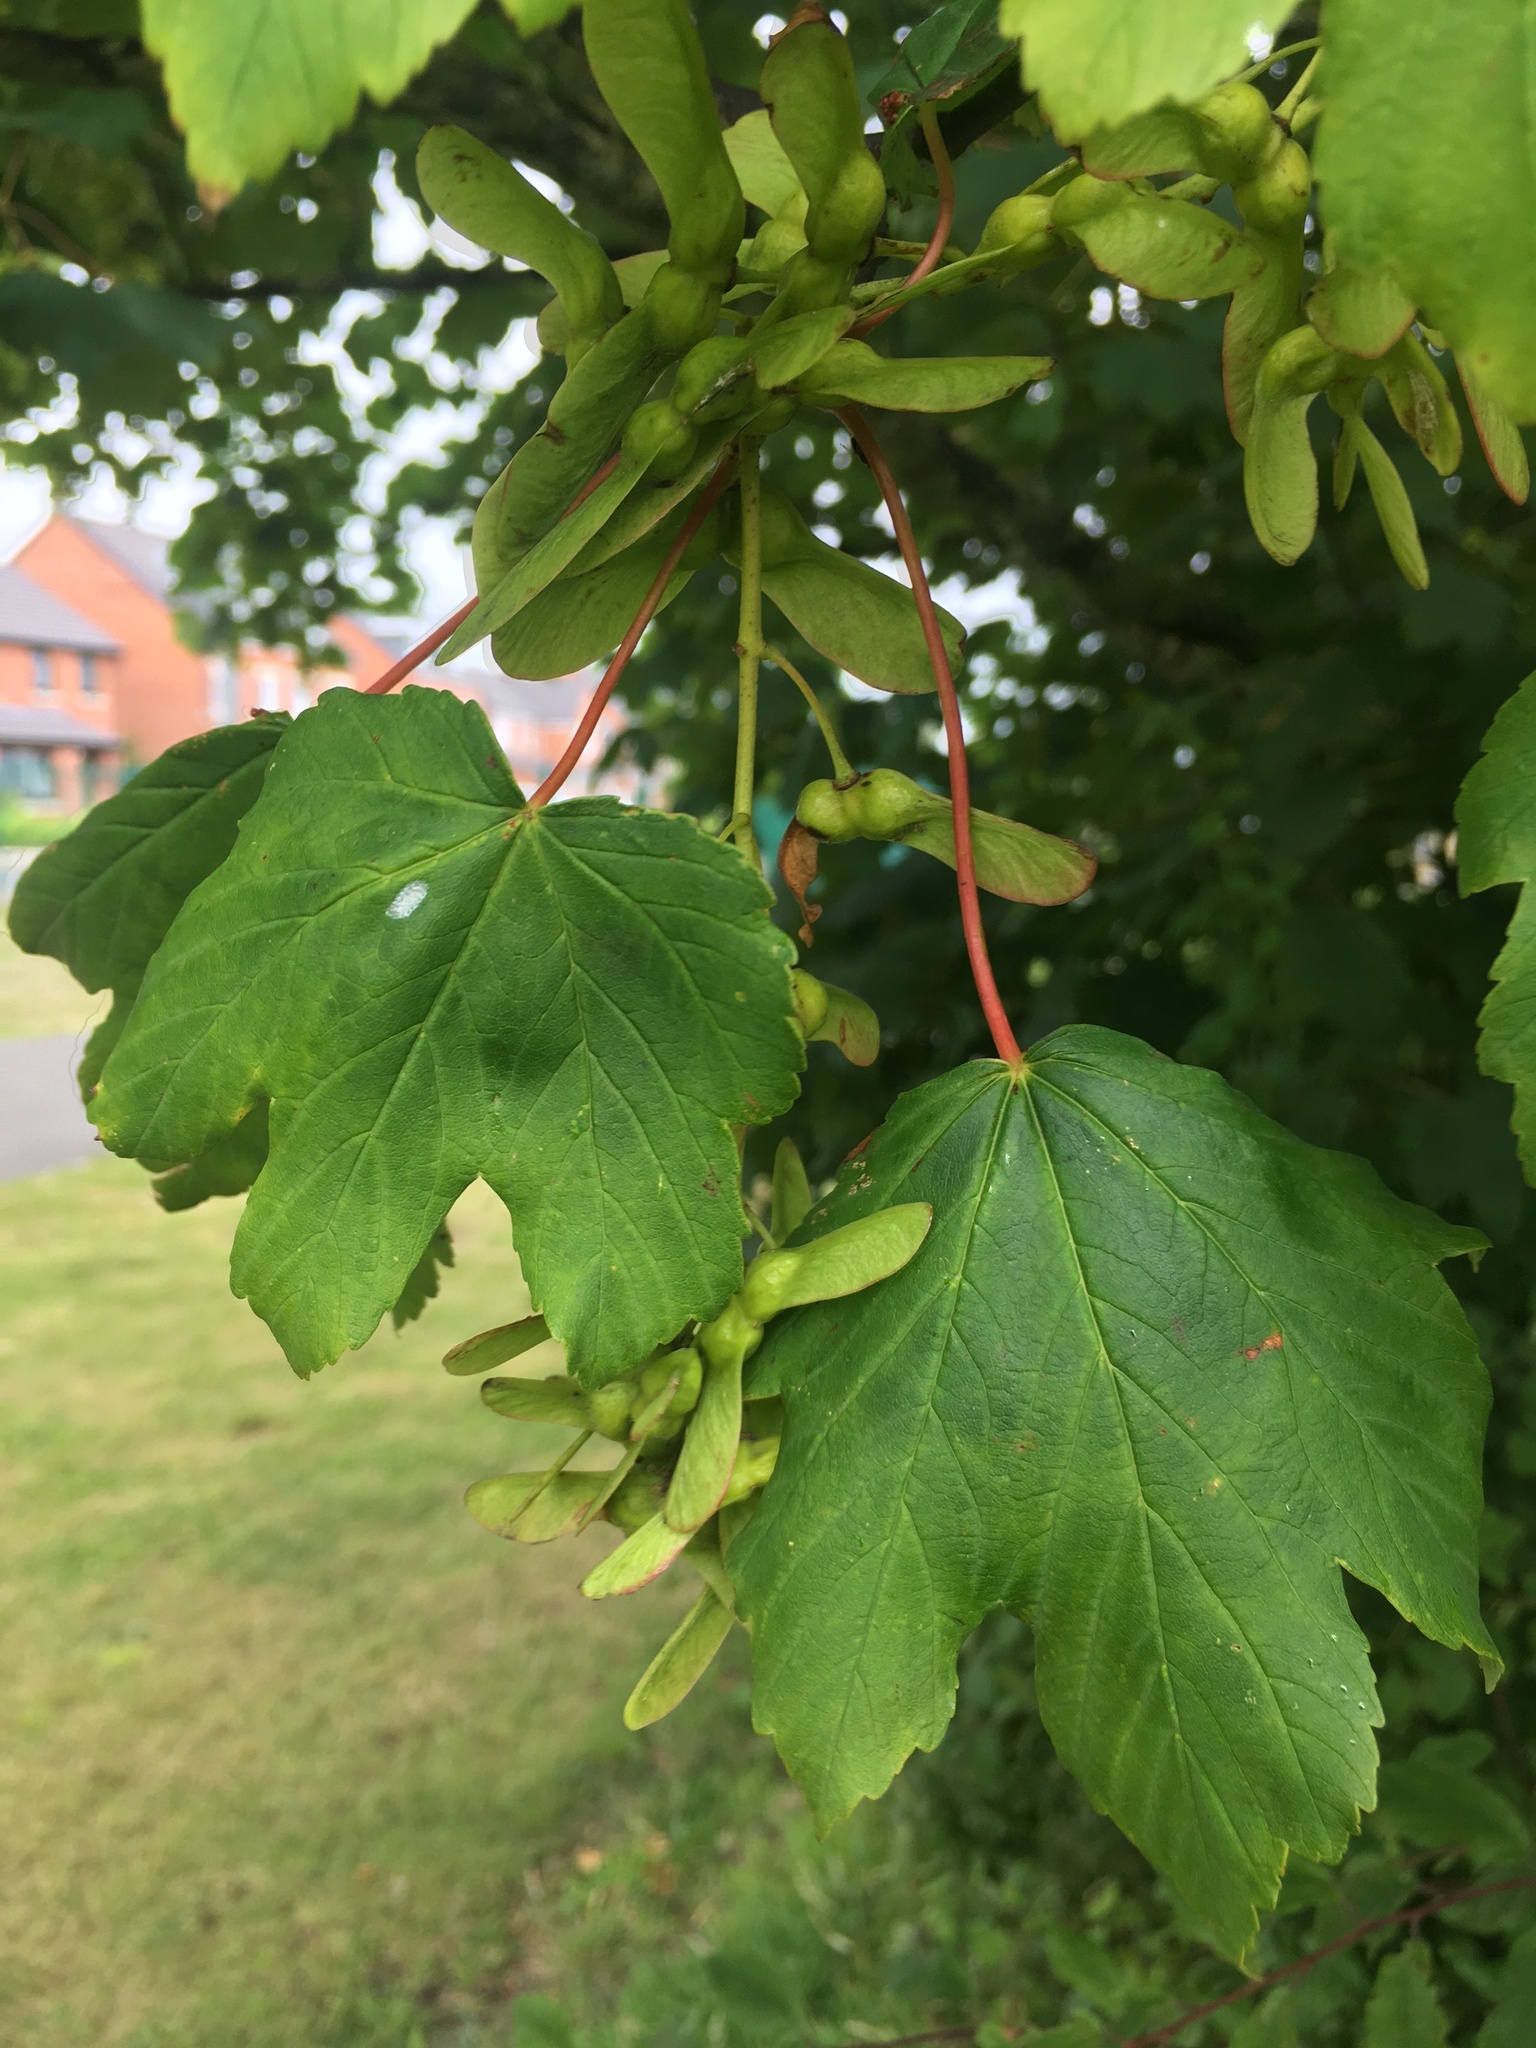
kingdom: Plantae
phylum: Tracheophyta
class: Magnoliopsida
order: Sapindales
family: Sapindaceae
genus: Acer
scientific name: Acer pseudoplatanus
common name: Sycamore
